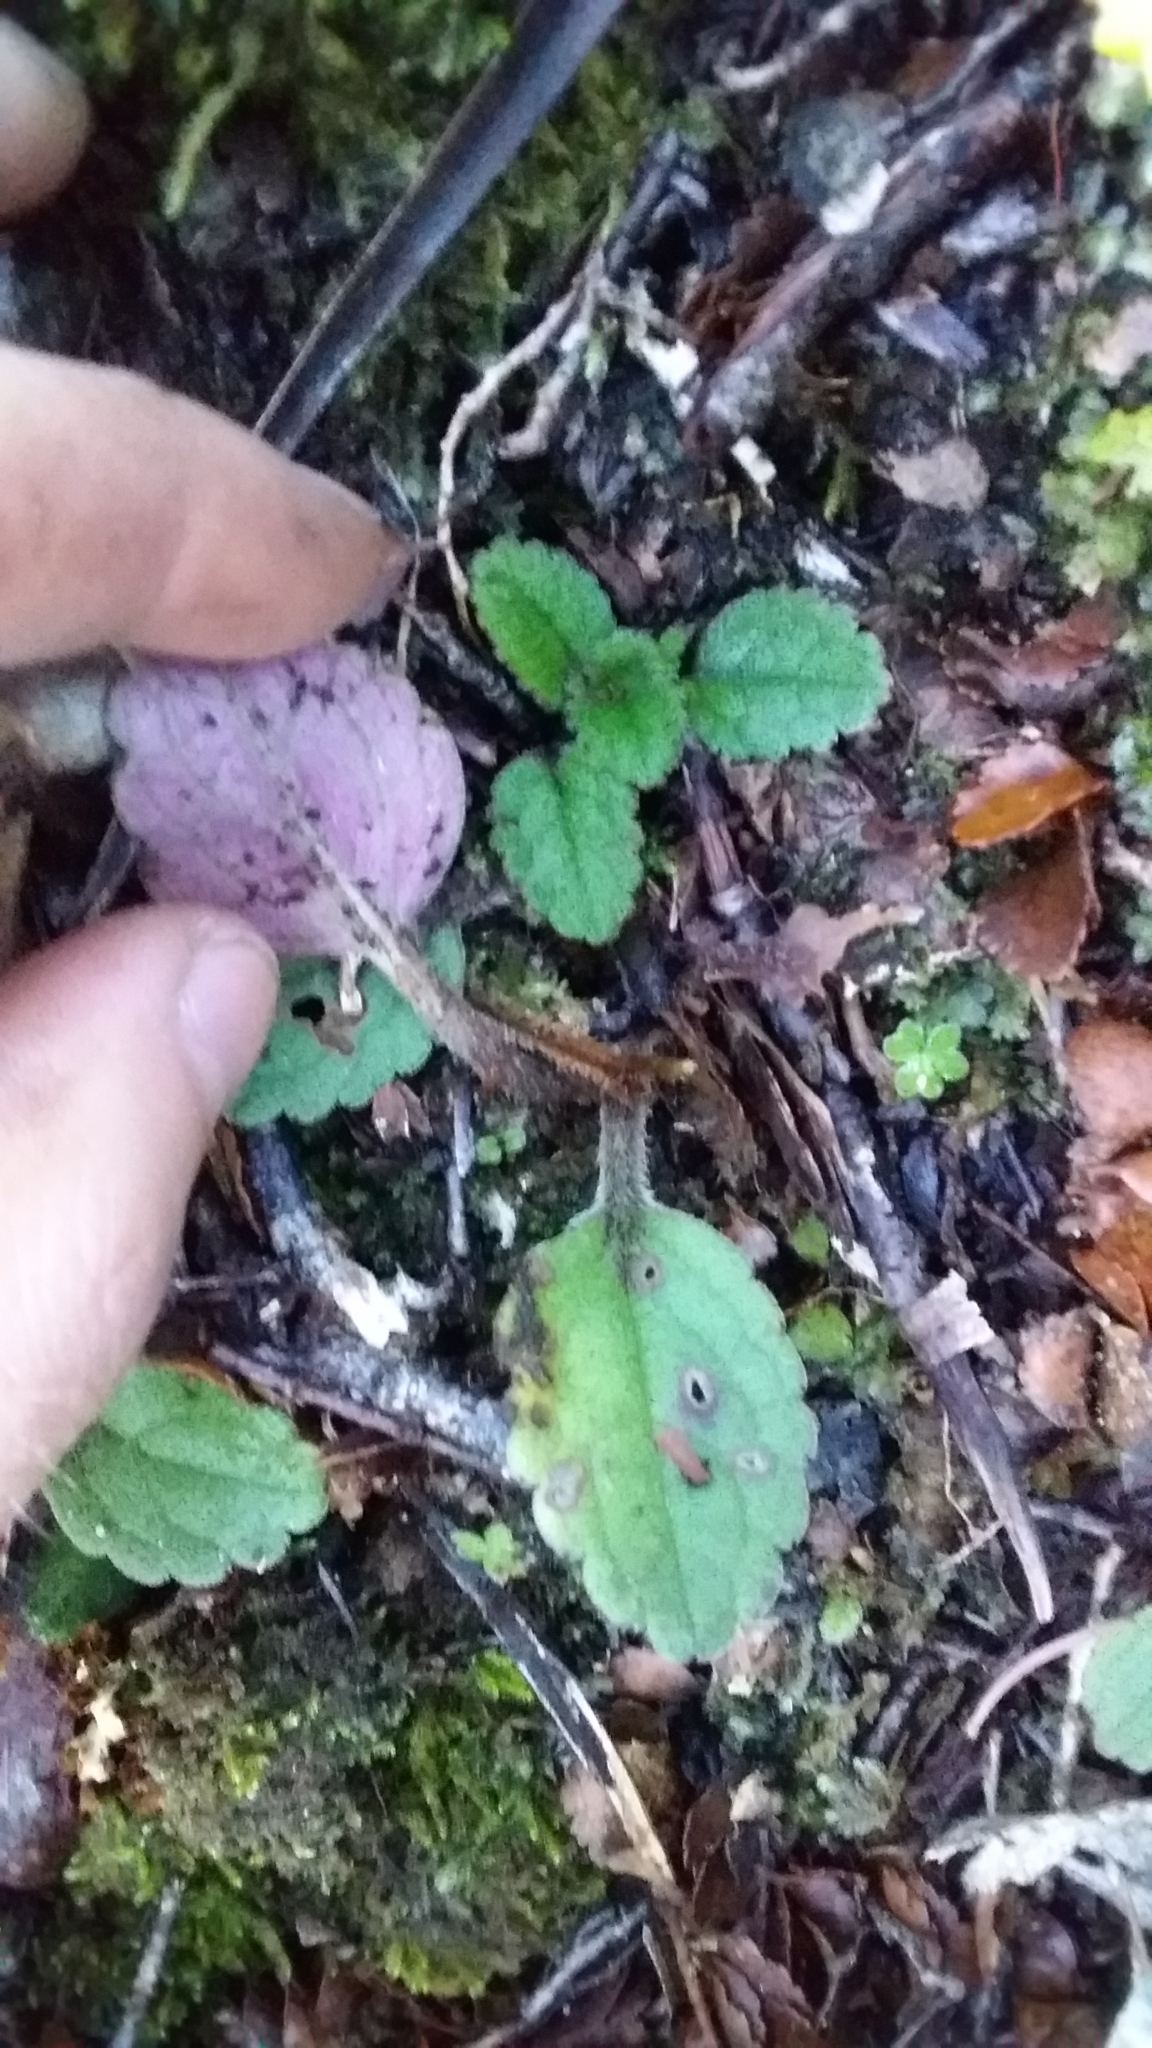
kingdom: Plantae
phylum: Tracheophyta
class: Magnoliopsida
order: Lamiales
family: Plantaginaceae
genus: Ourisia
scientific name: Ourisia macrophylla
